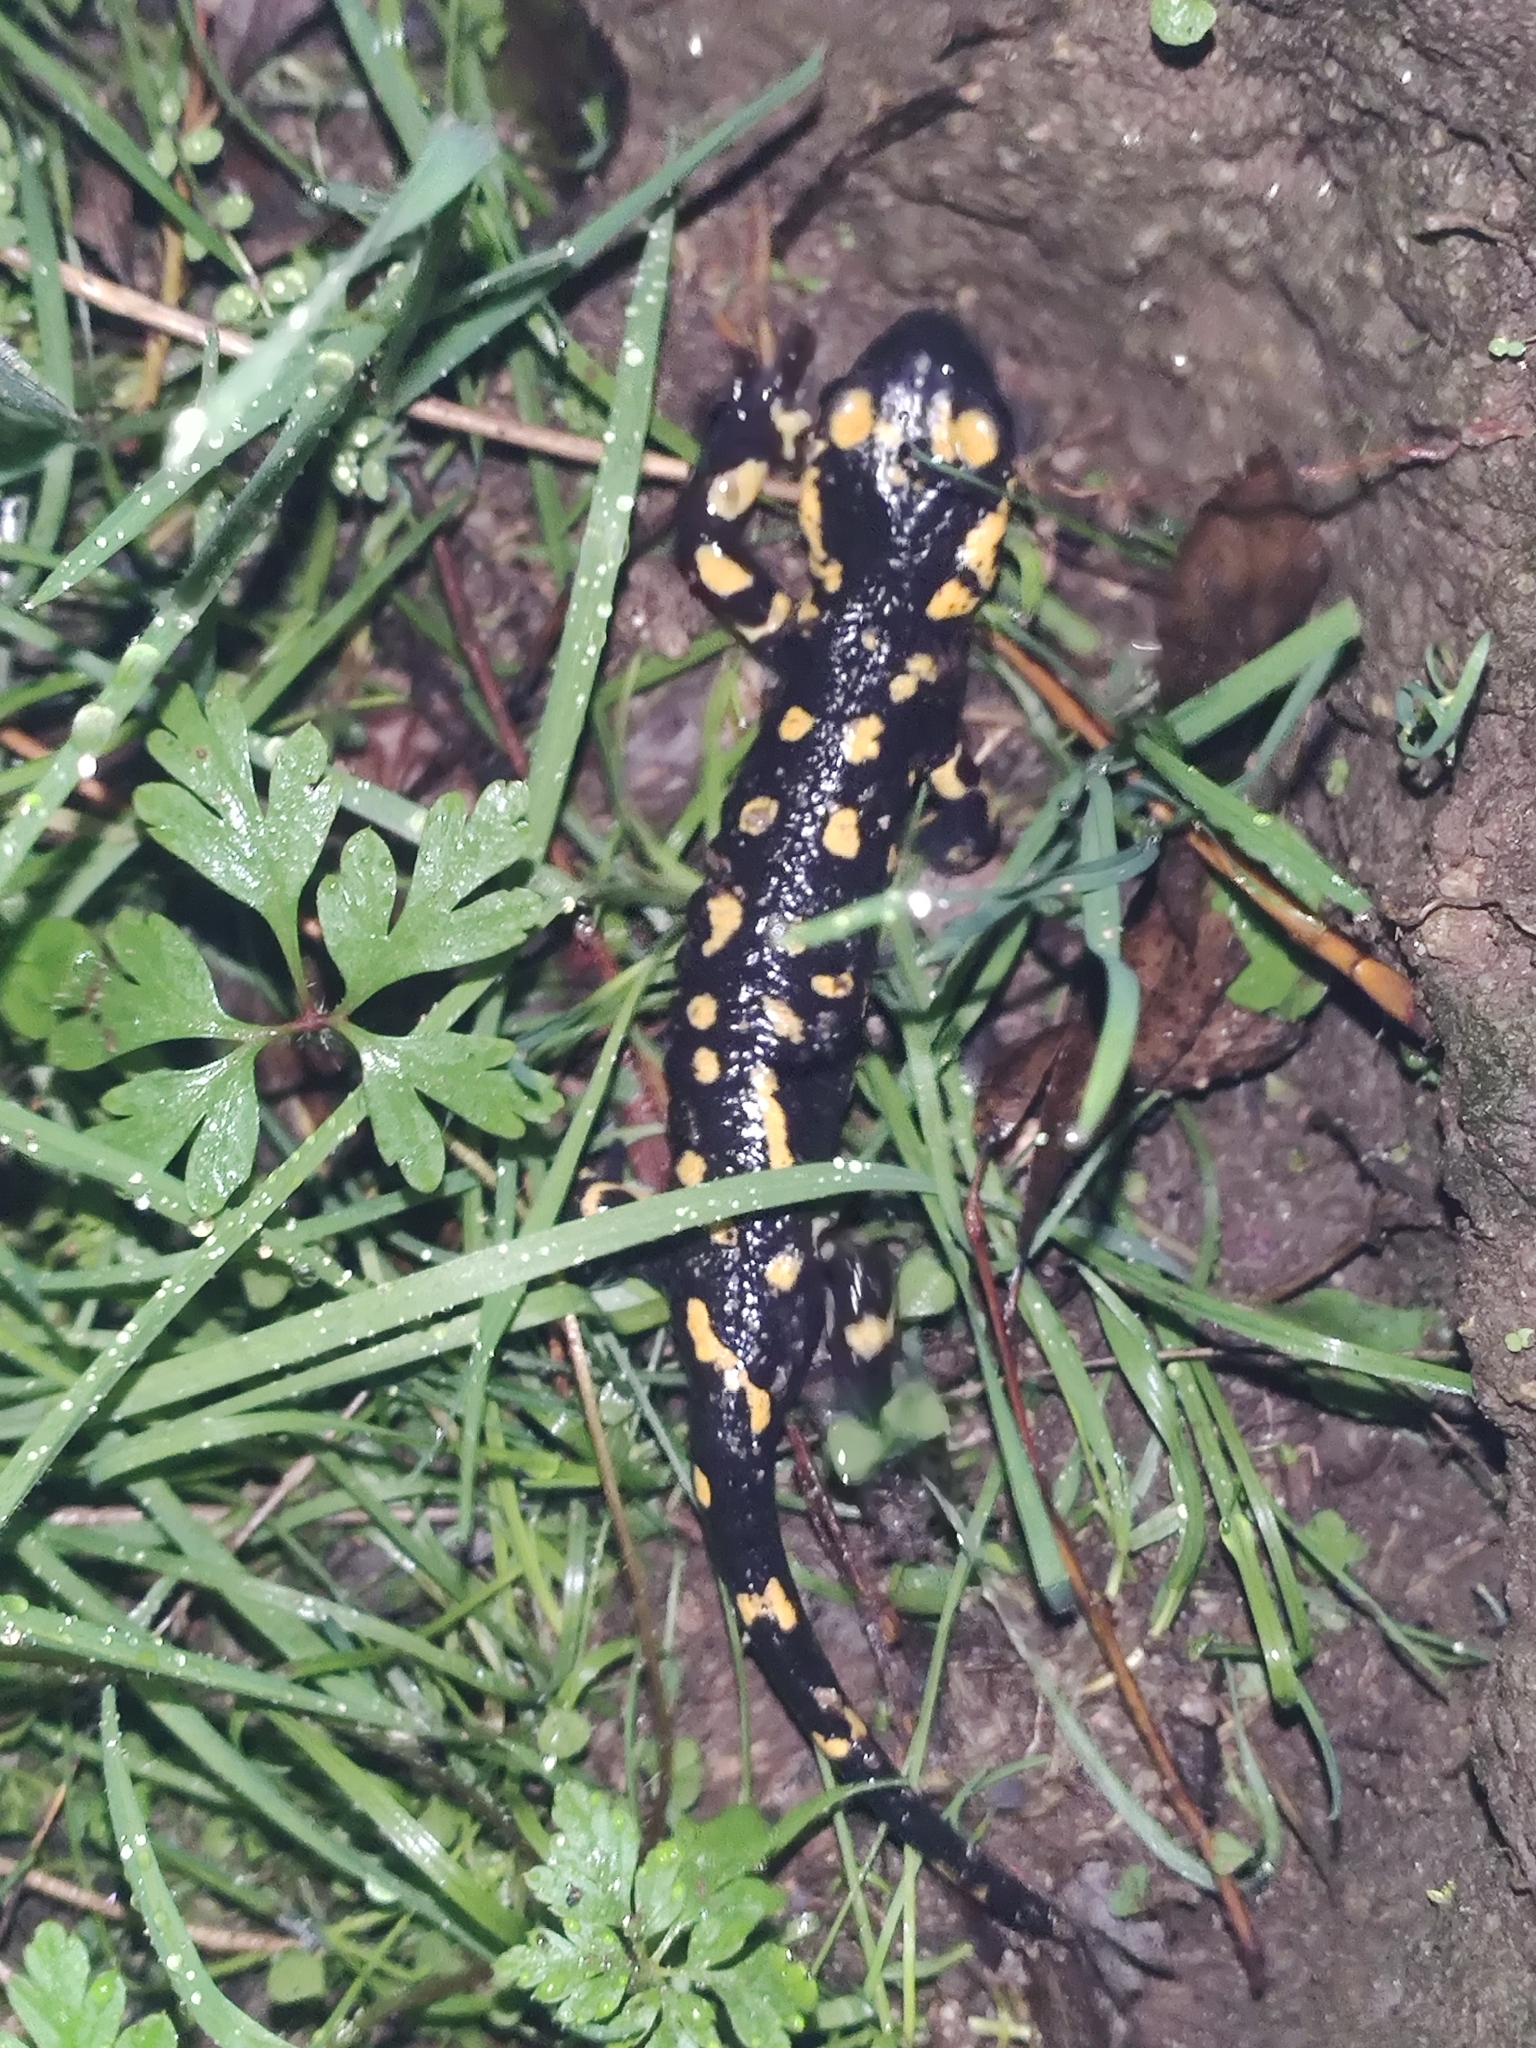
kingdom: Animalia
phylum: Chordata
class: Amphibia
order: Caudata
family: Salamandridae
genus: Salamandra
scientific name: Salamandra salamandra
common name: Fire salamander
